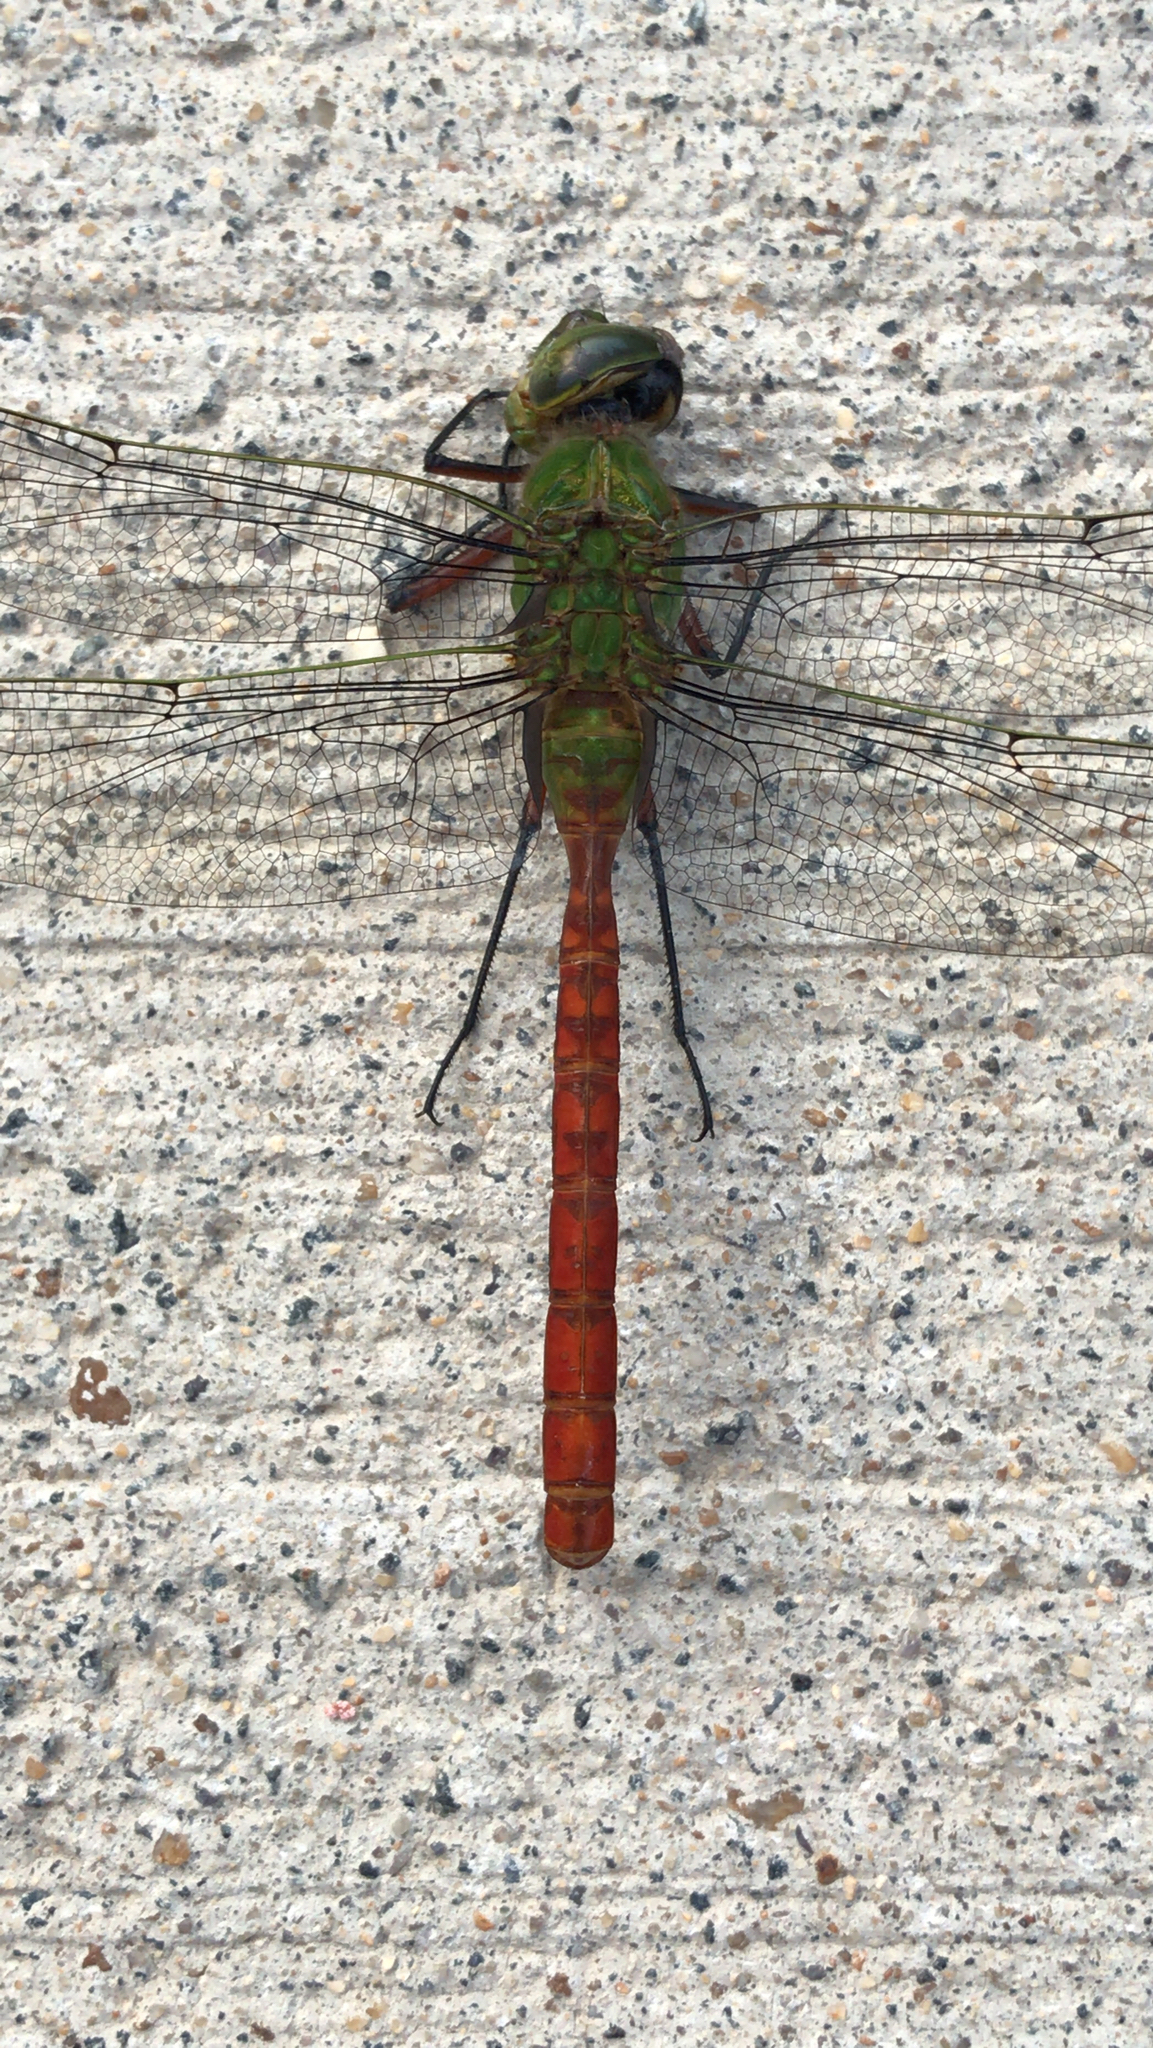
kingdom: Animalia
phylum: Arthropoda
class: Insecta
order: Odonata
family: Aeshnidae
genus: Anax
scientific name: Anax longipes
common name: Comet darner
